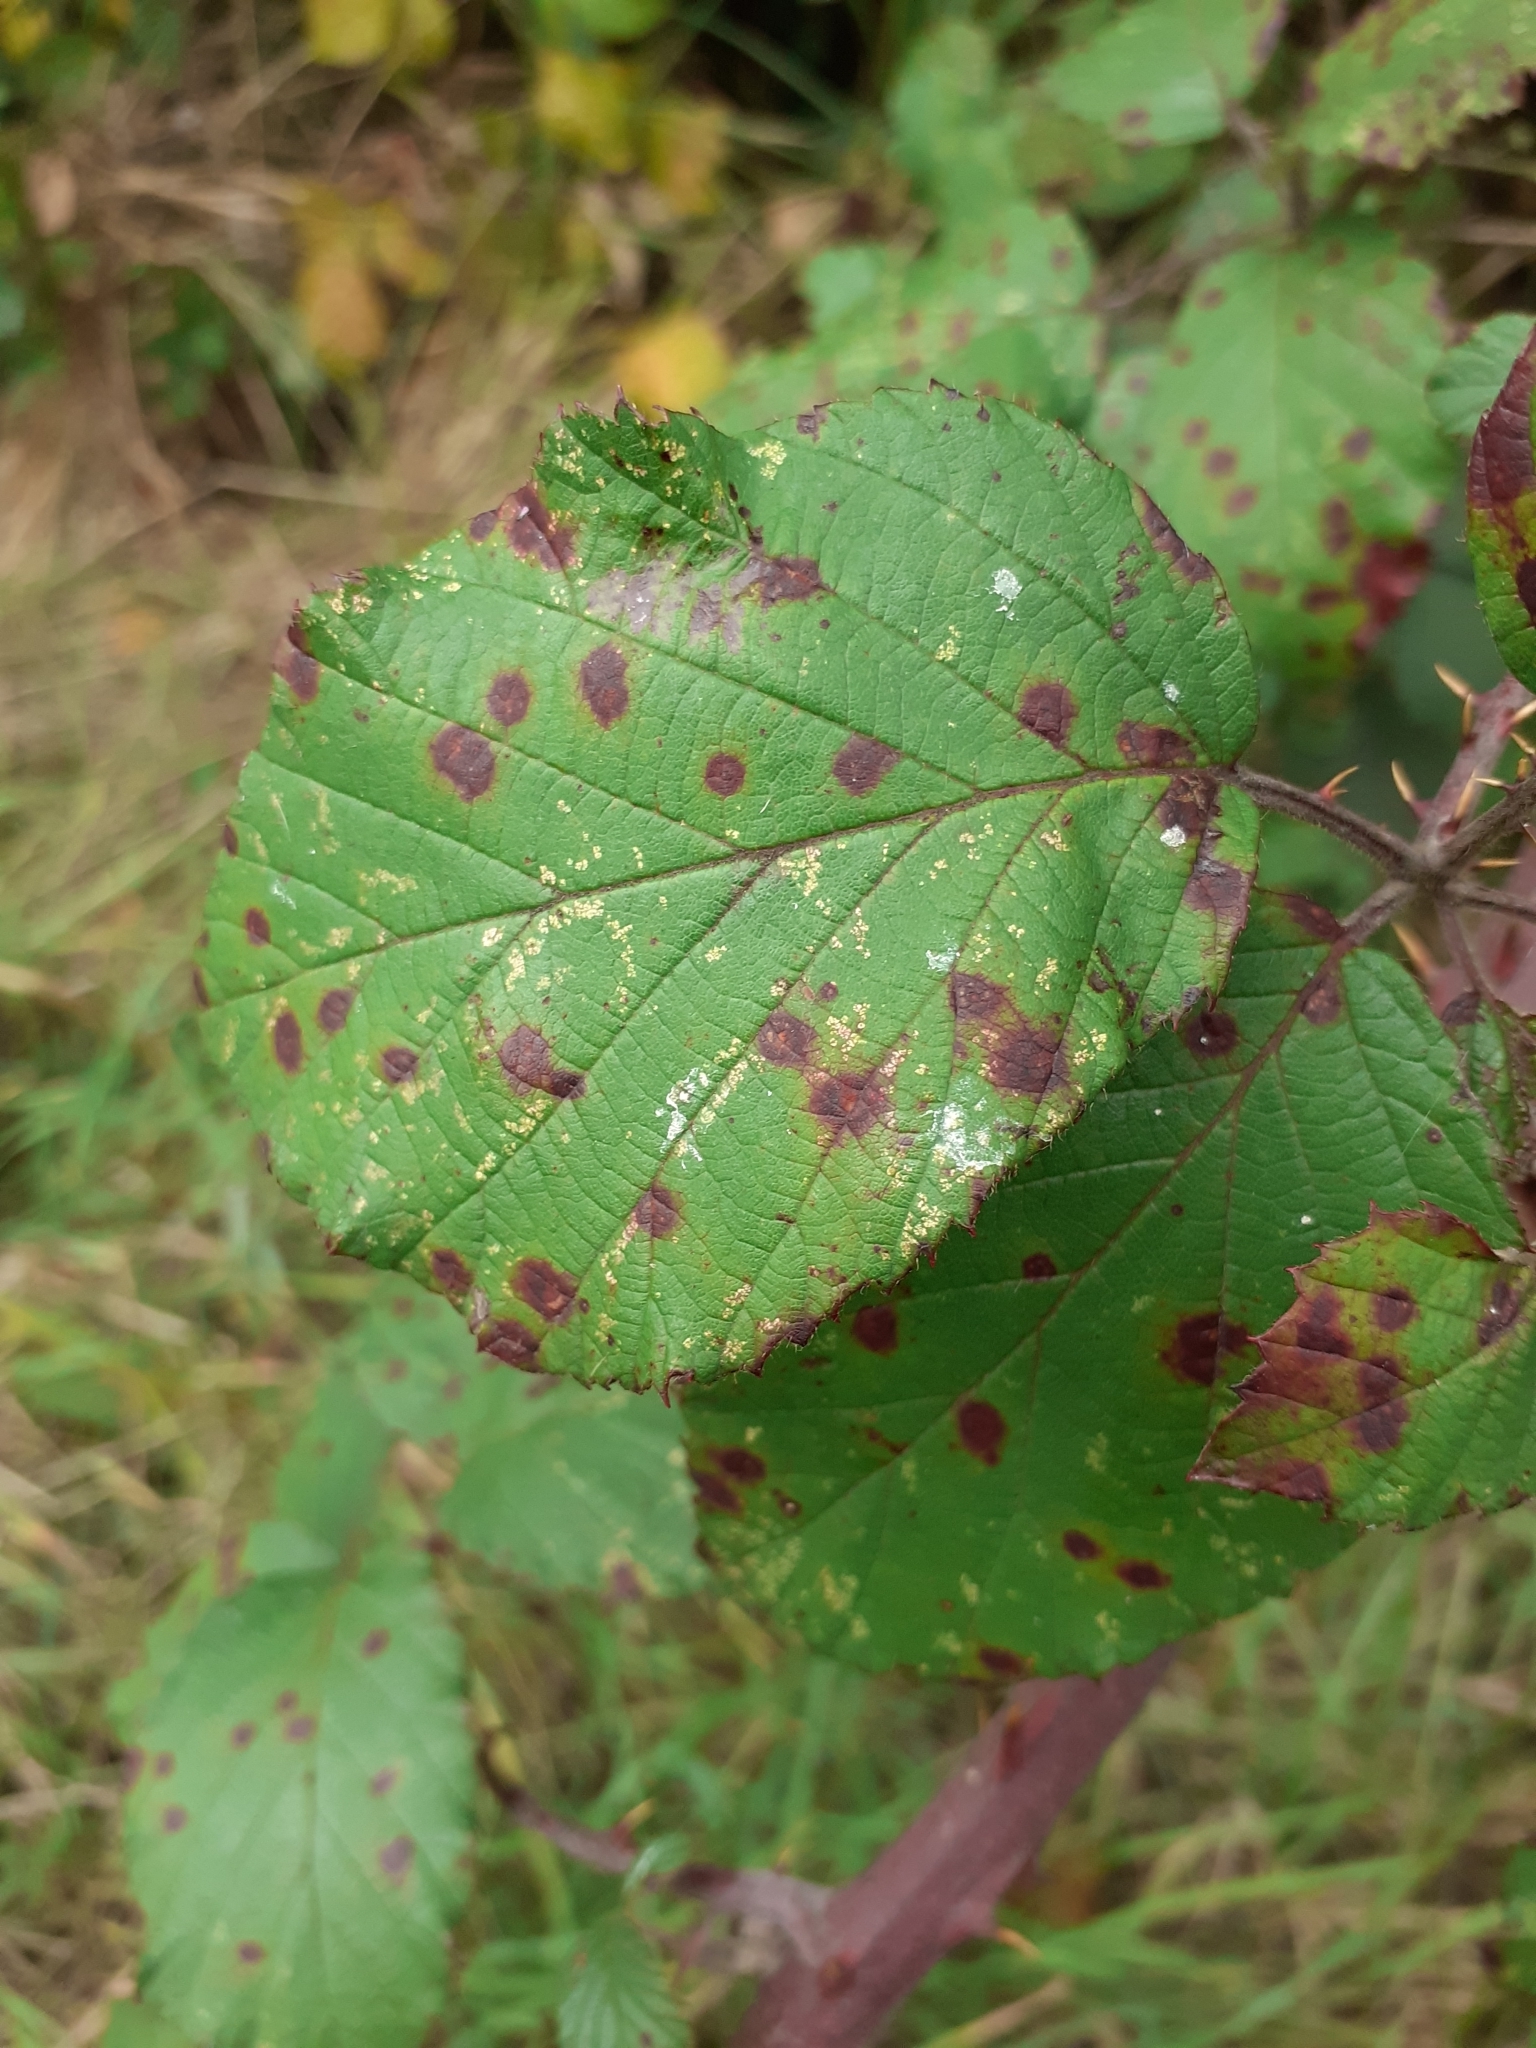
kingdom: Fungi
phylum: Basidiomycota
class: Pucciniomycetes
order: Pucciniales
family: Phragmidiaceae
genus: Phragmidium
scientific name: Phragmidium violaceum
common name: Violet bramble rust
